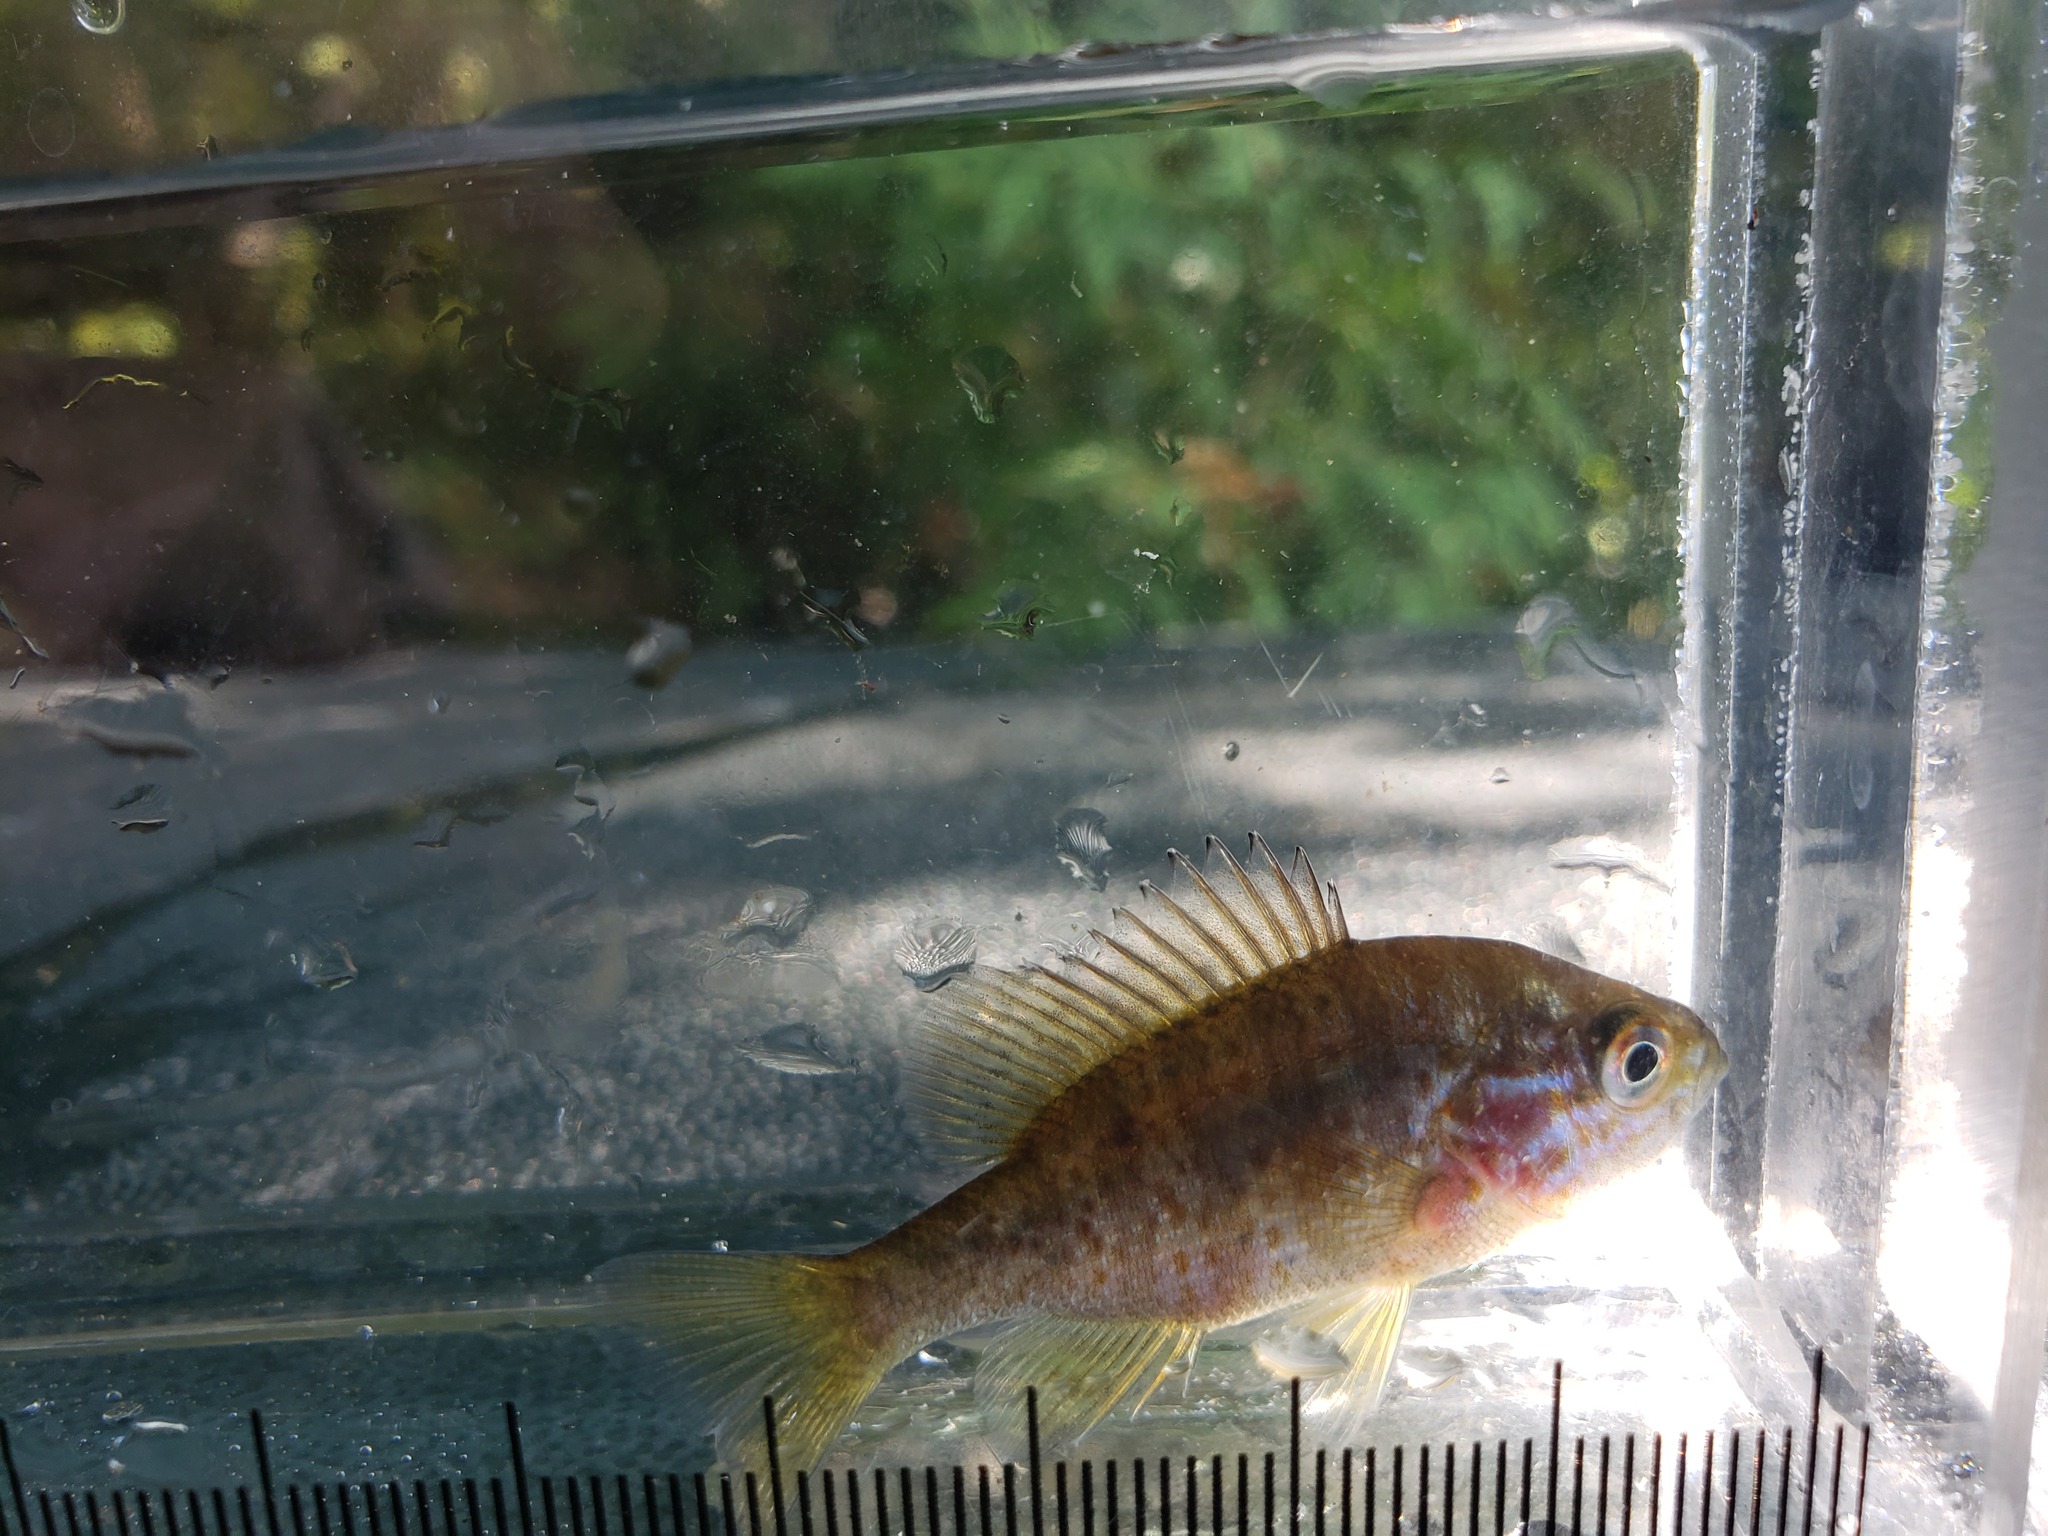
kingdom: Animalia
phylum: Chordata
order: Perciformes
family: Centrarchidae
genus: Lepomis
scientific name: Lepomis gibbosus
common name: Pumpkinseed
